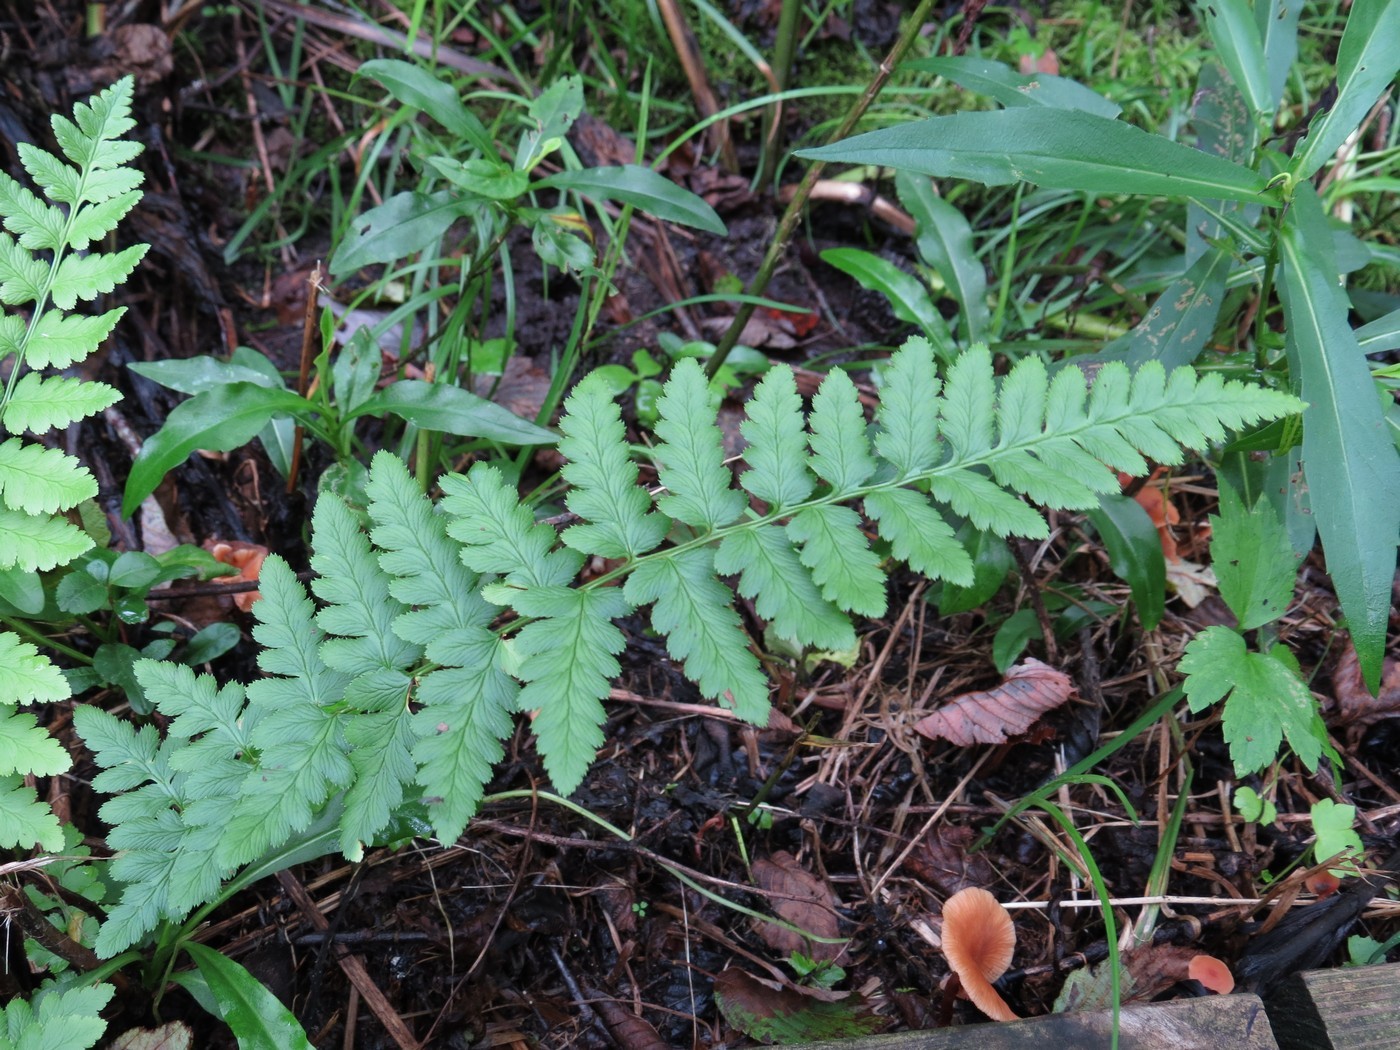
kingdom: Plantae
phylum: Tracheophyta
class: Polypodiopsida
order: Polypodiales
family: Dryopteridaceae
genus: Dryopteris
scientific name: Dryopteris cristata
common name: Crested wood fern
